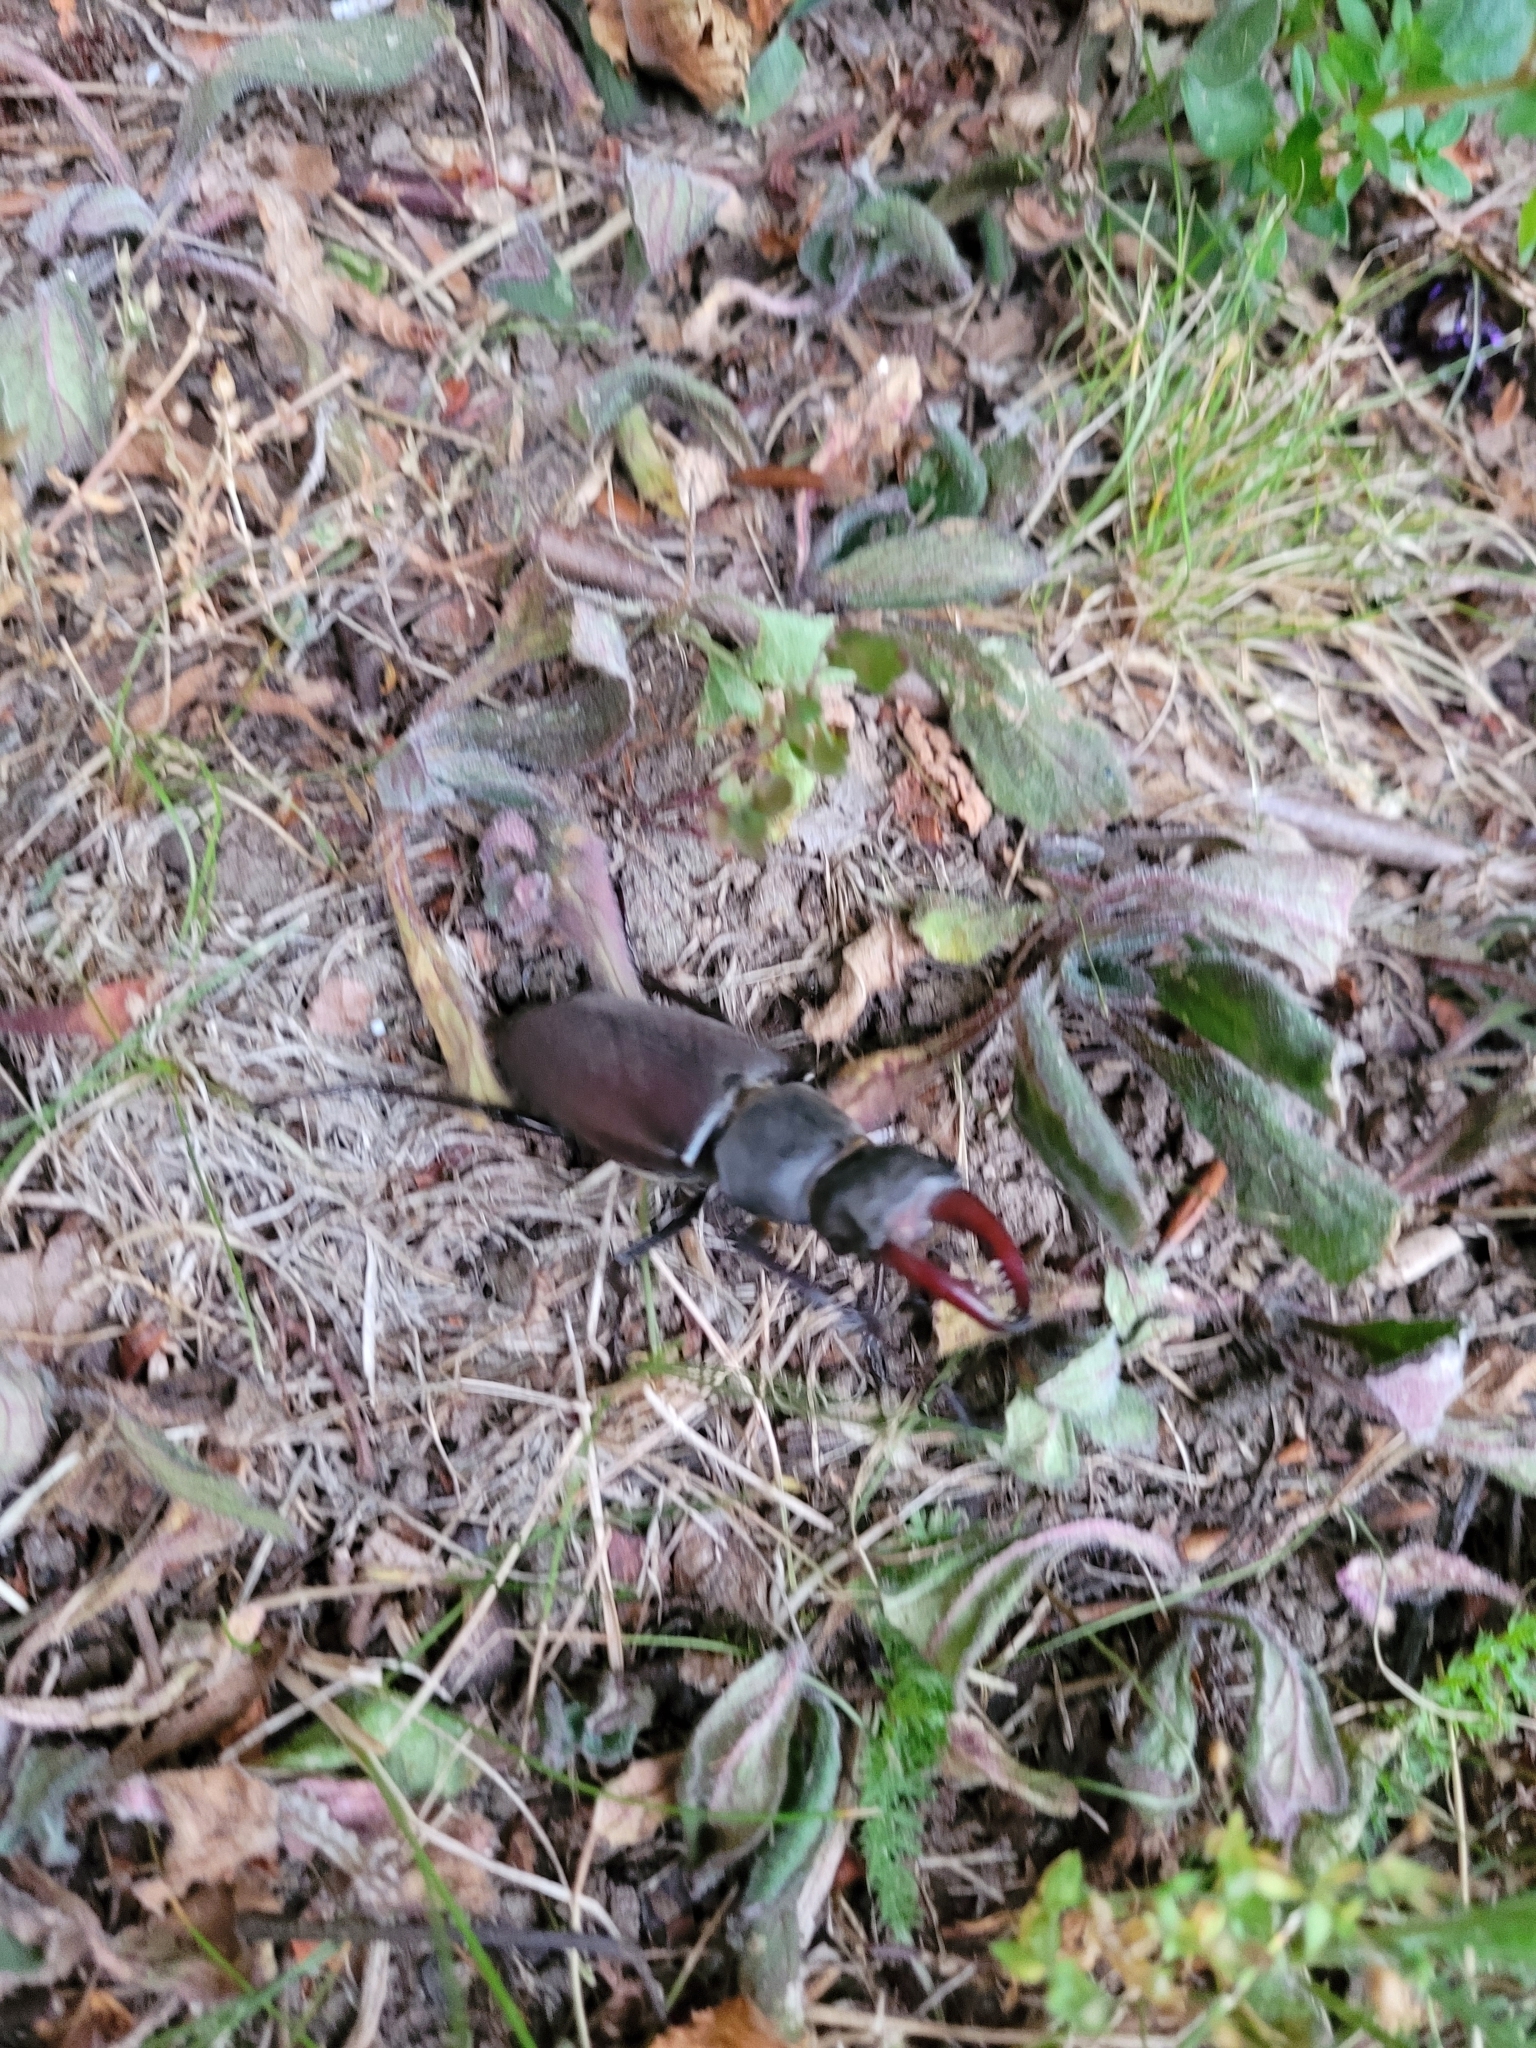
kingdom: Animalia
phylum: Arthropoda
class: Insecta
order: Coleoptera
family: Lucanidae
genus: Lucanus
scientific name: Lucanus cervus
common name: Stag beetle
